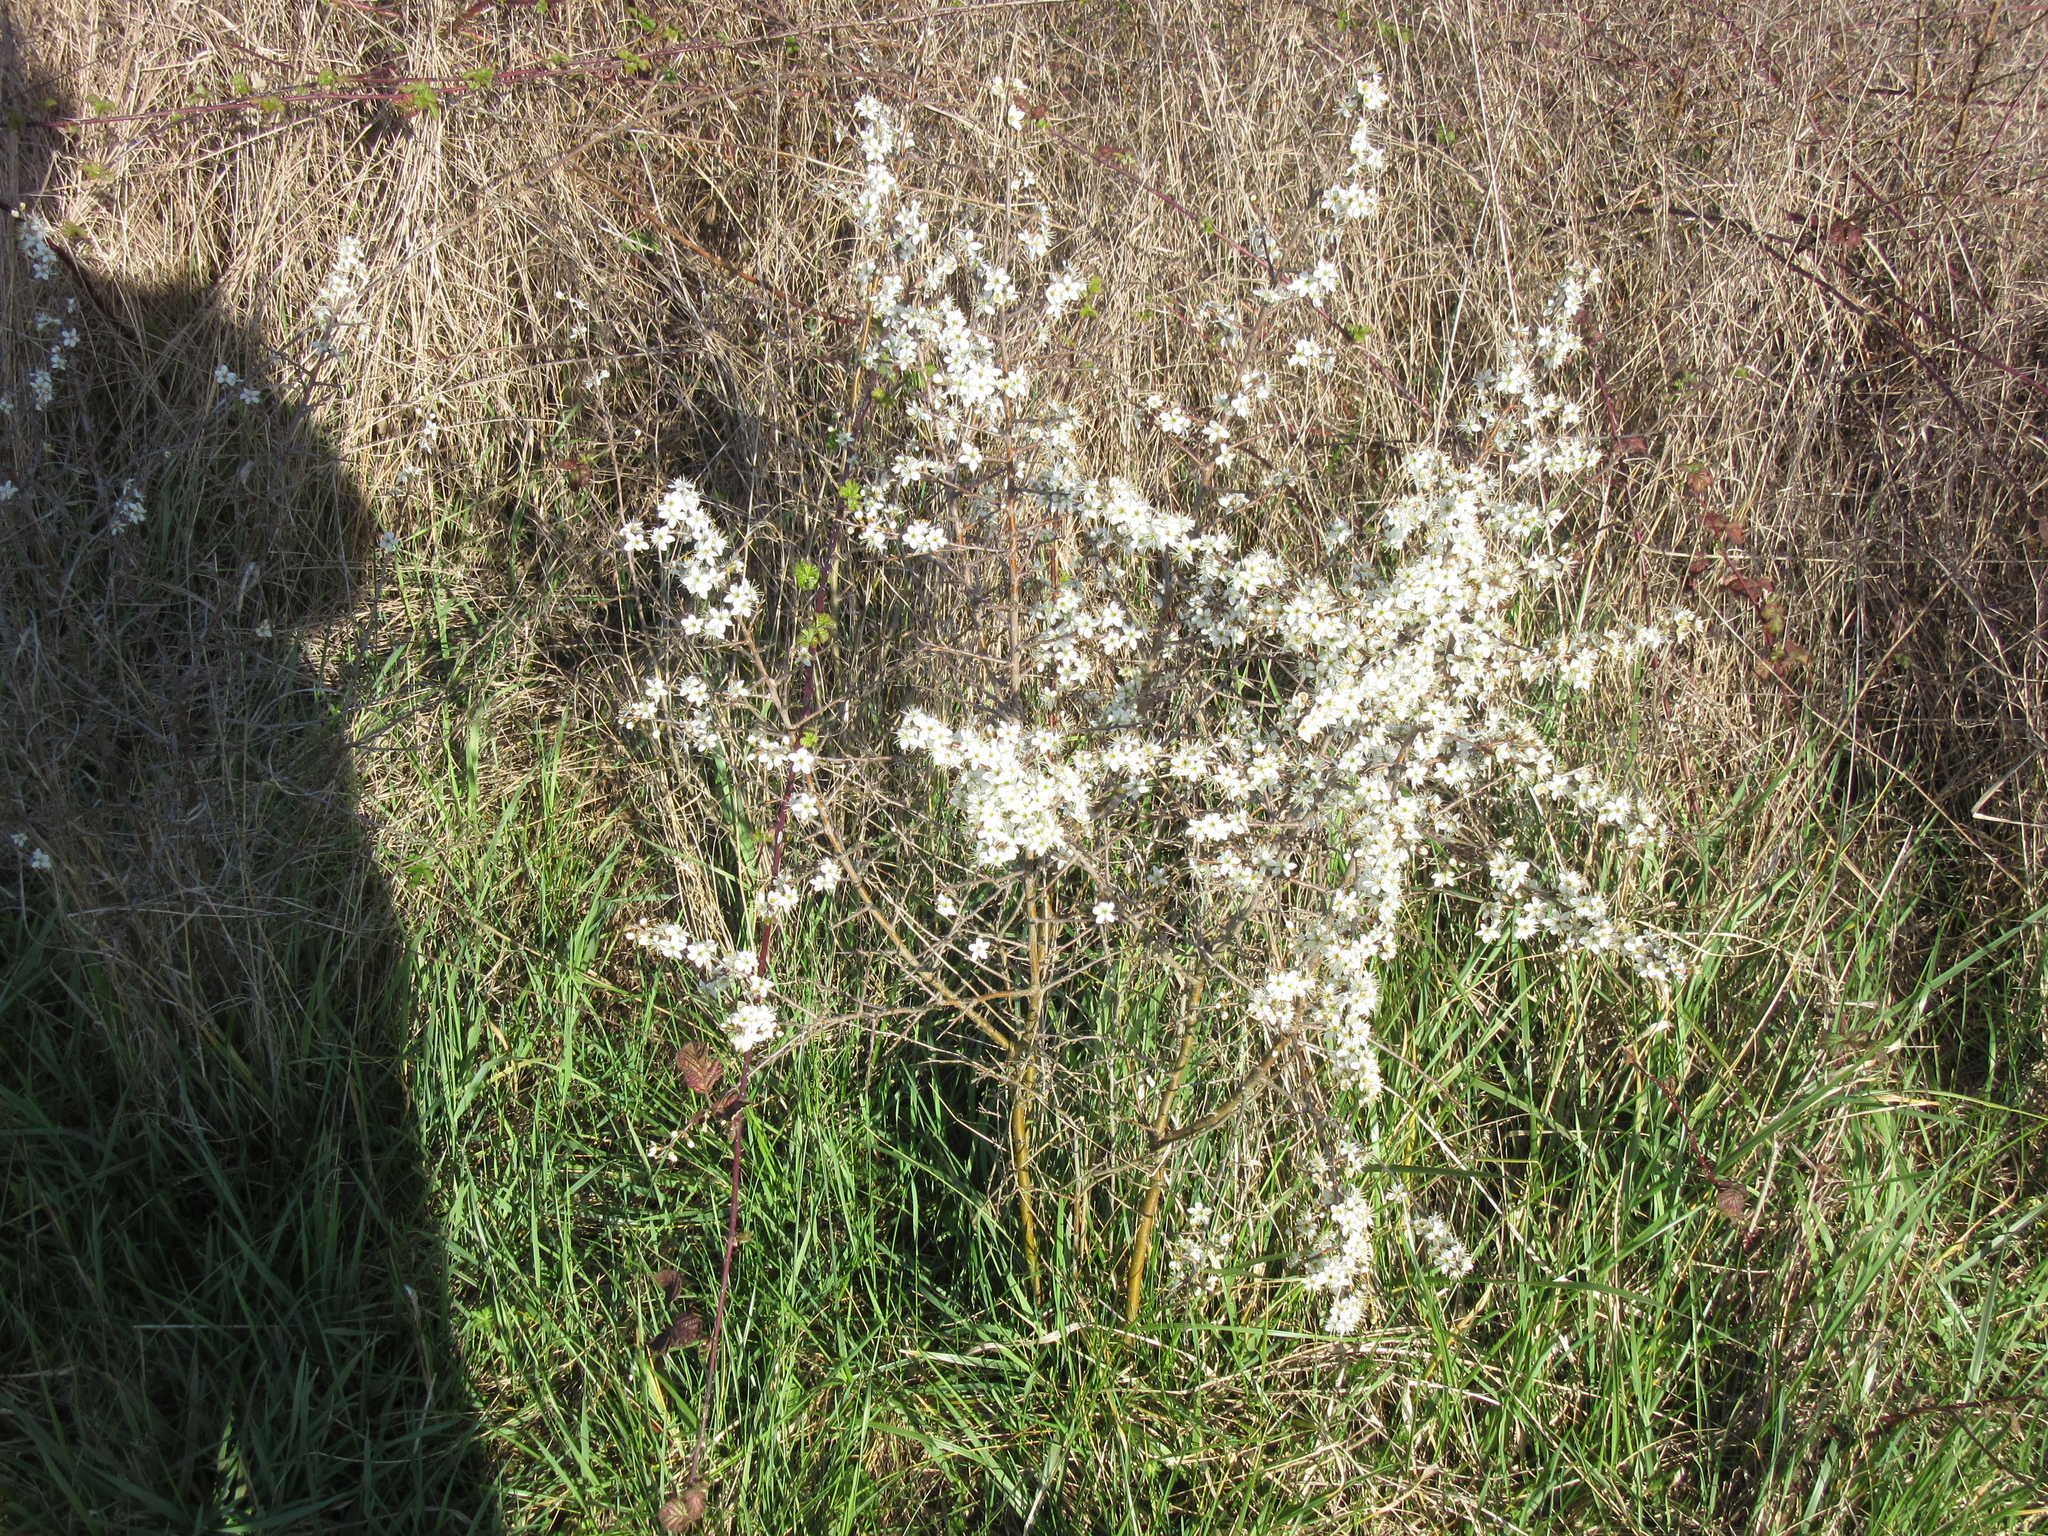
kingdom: Plantae
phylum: Tracheophyta
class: Magnoliopsida
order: Rosales
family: Rosaceae
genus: Prunus
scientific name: Prunus spinosa
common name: Blackthorn
